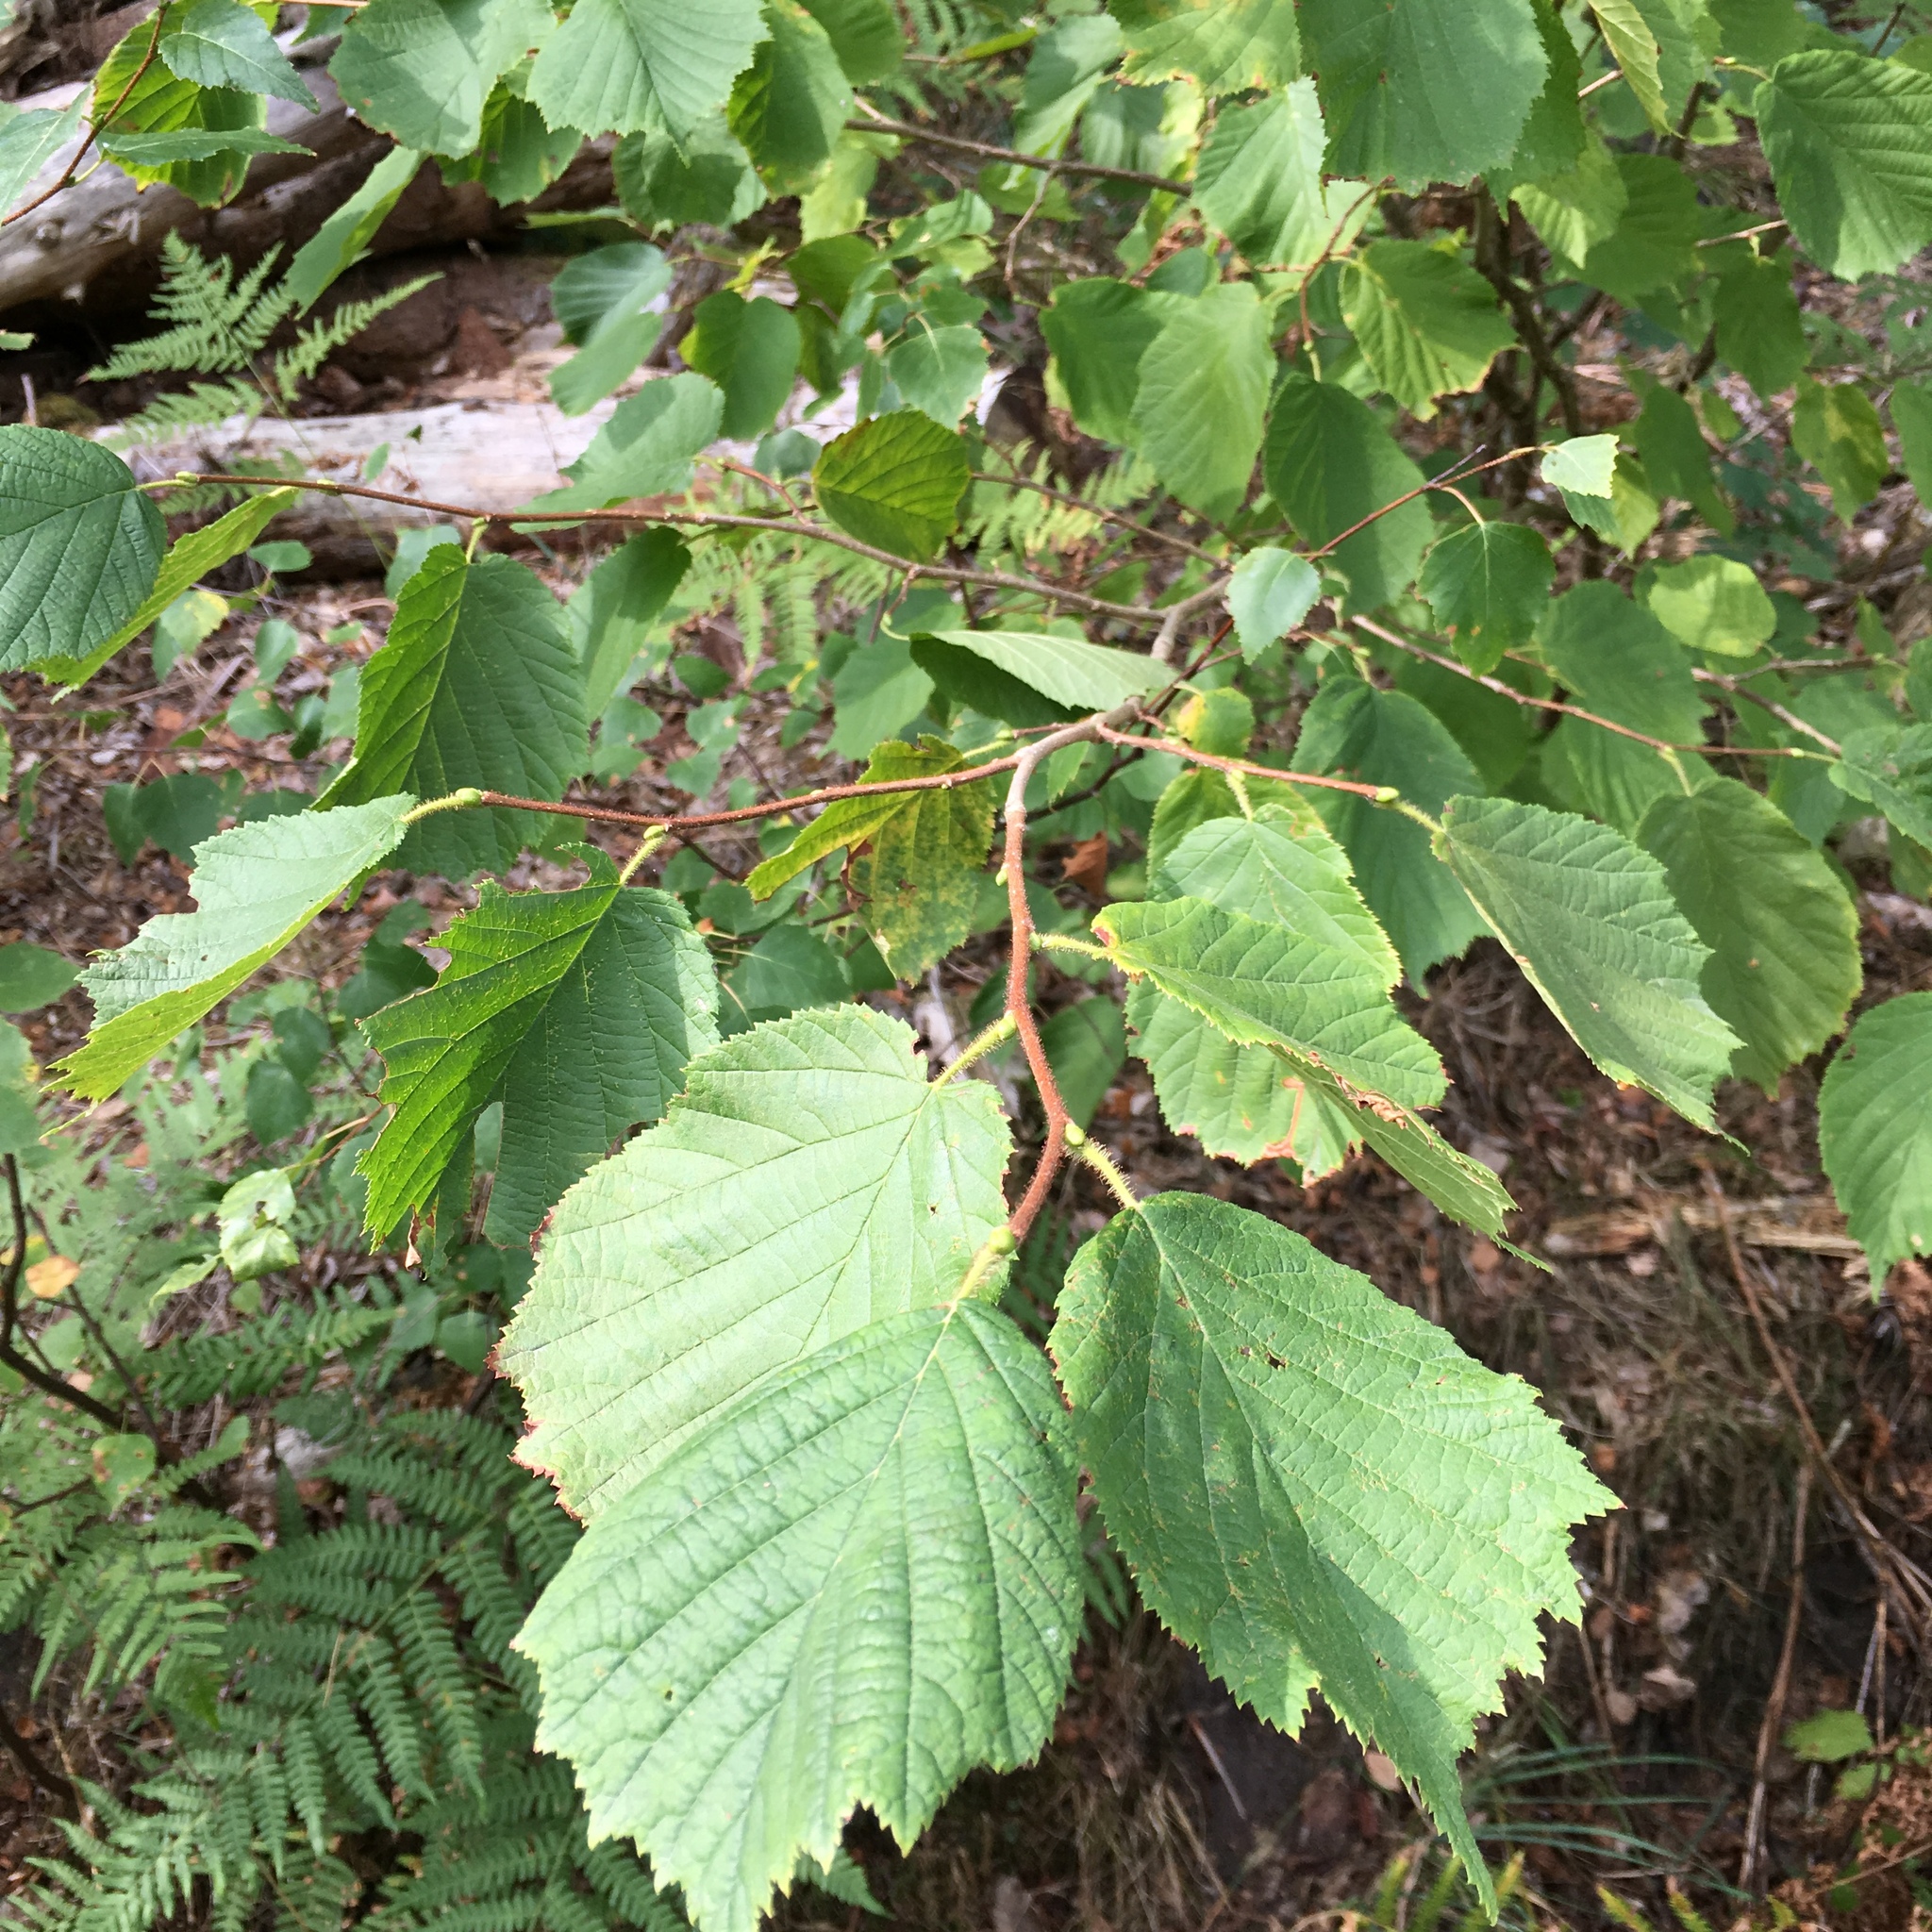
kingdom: Plantae
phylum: Tracheophyta
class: Magnoliopsida
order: Fagales
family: Betulaceae
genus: Corylus
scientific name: Corylus avellana
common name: European hazel
